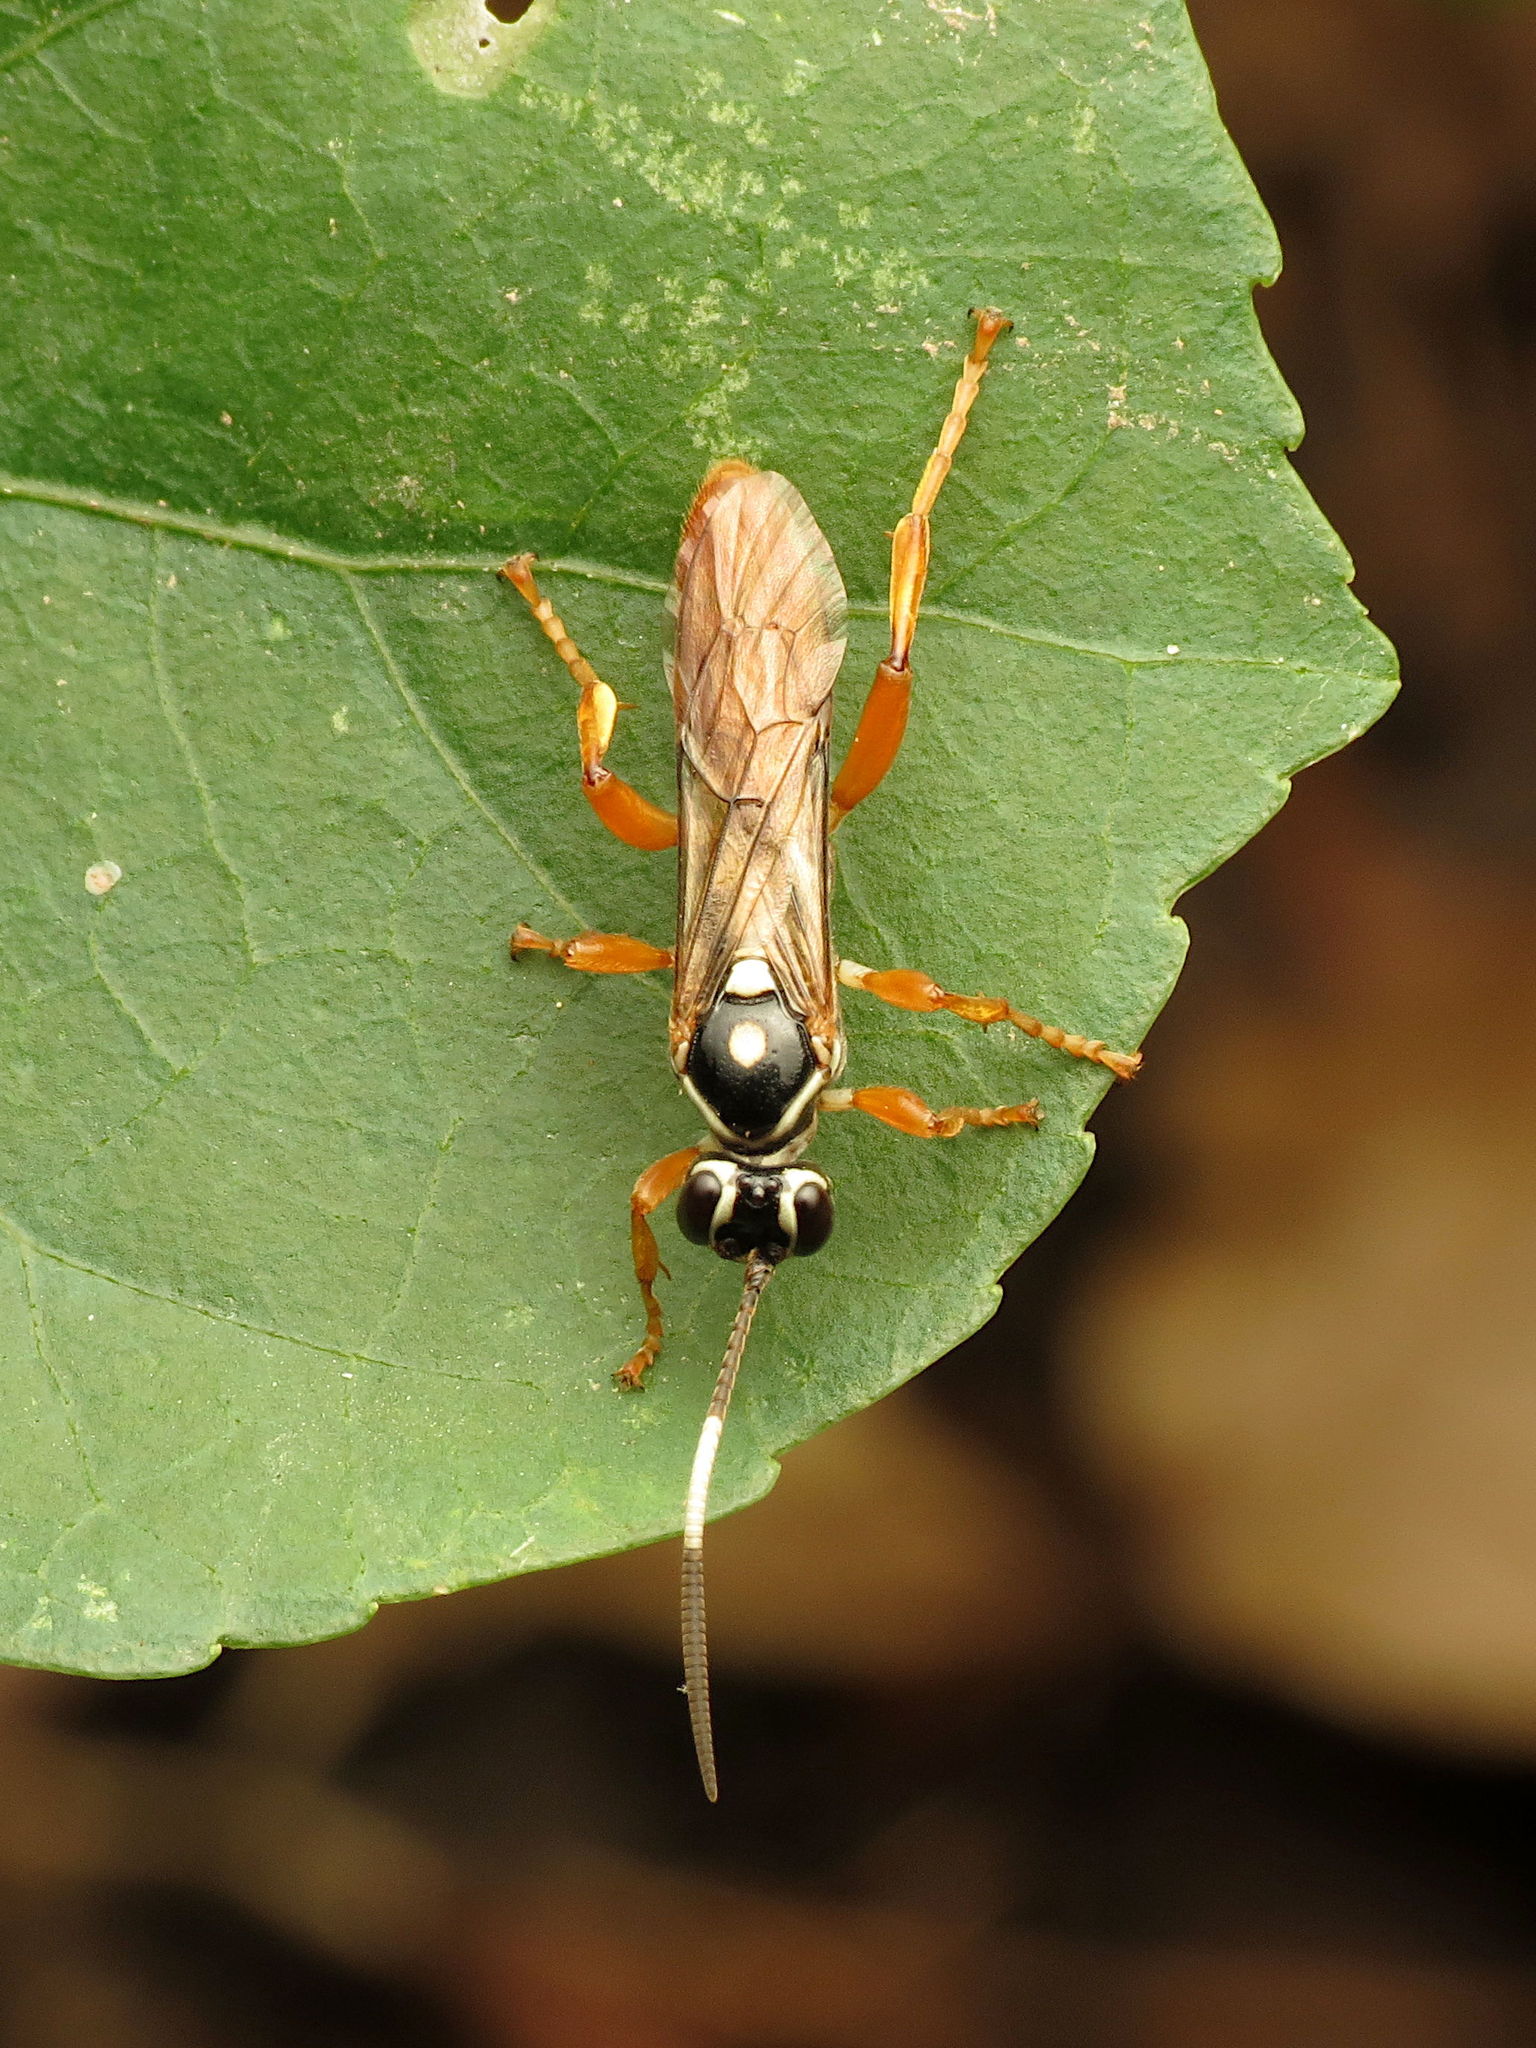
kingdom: Animalia
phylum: Arthropoda
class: Insecta
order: Hymenoptera
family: Ichneumonidae
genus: Cratichneumon
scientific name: Cratichneumon w-album
